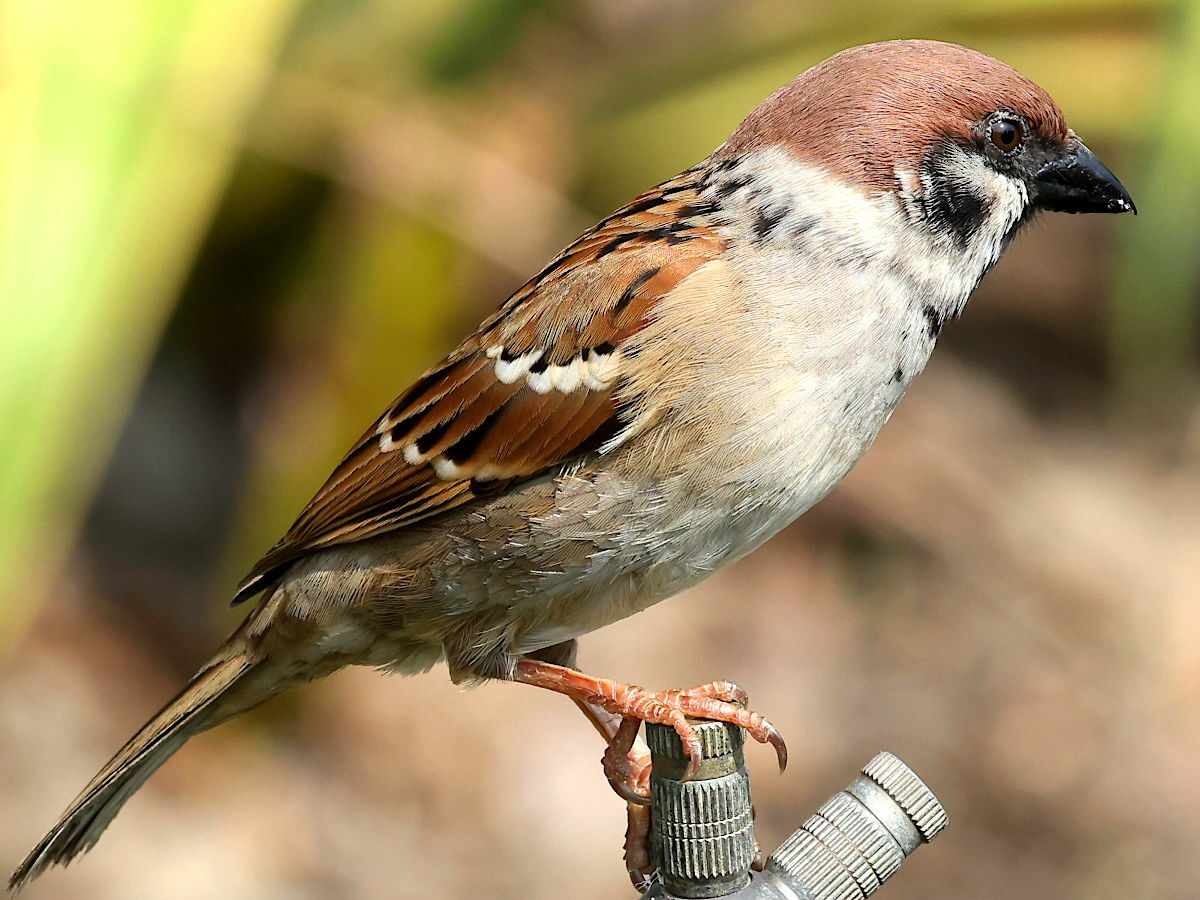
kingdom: Animalia
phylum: Chordata
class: Aves
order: Passeriformes
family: Passeridae
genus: Passer
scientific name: Passer montanus
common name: Eurasian tree sparrow
